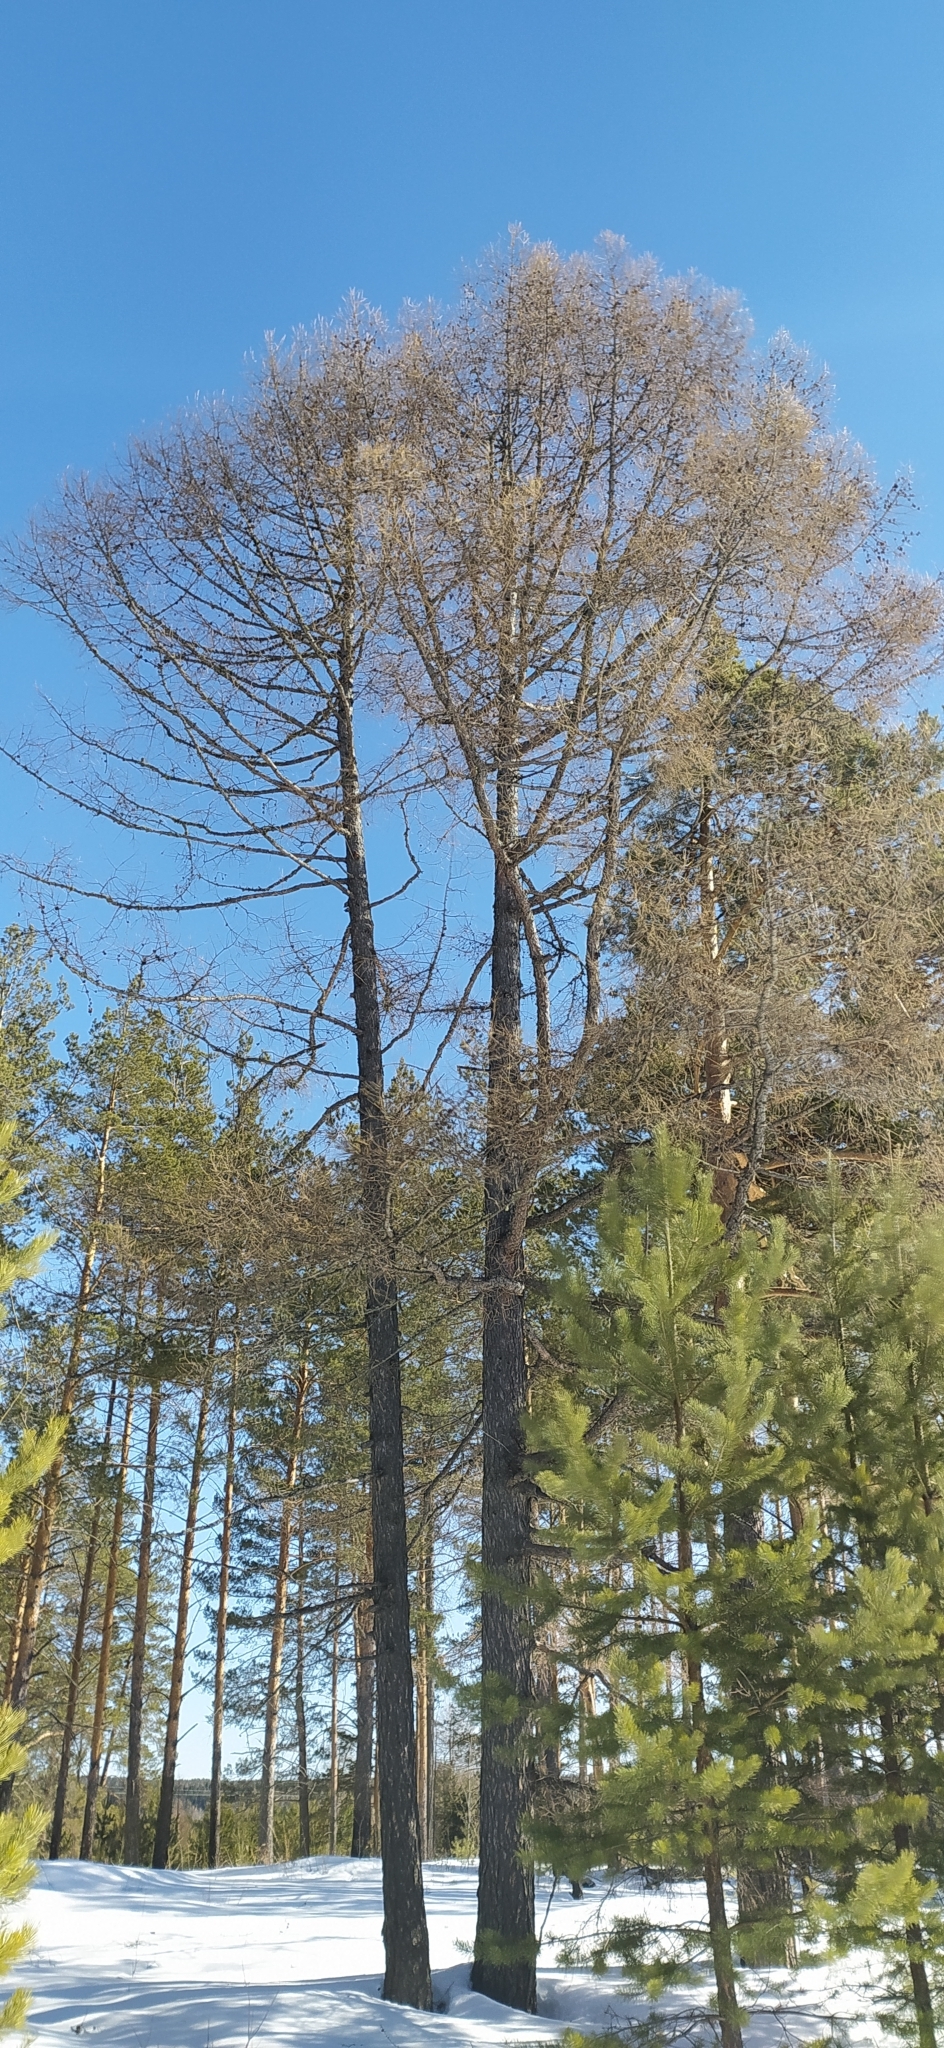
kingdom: Plantae
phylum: Tracheophyta
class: Pinopsida
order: Pinales
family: Pinaceae
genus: Larix
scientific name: Larix sibirica
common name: Siberian larch
